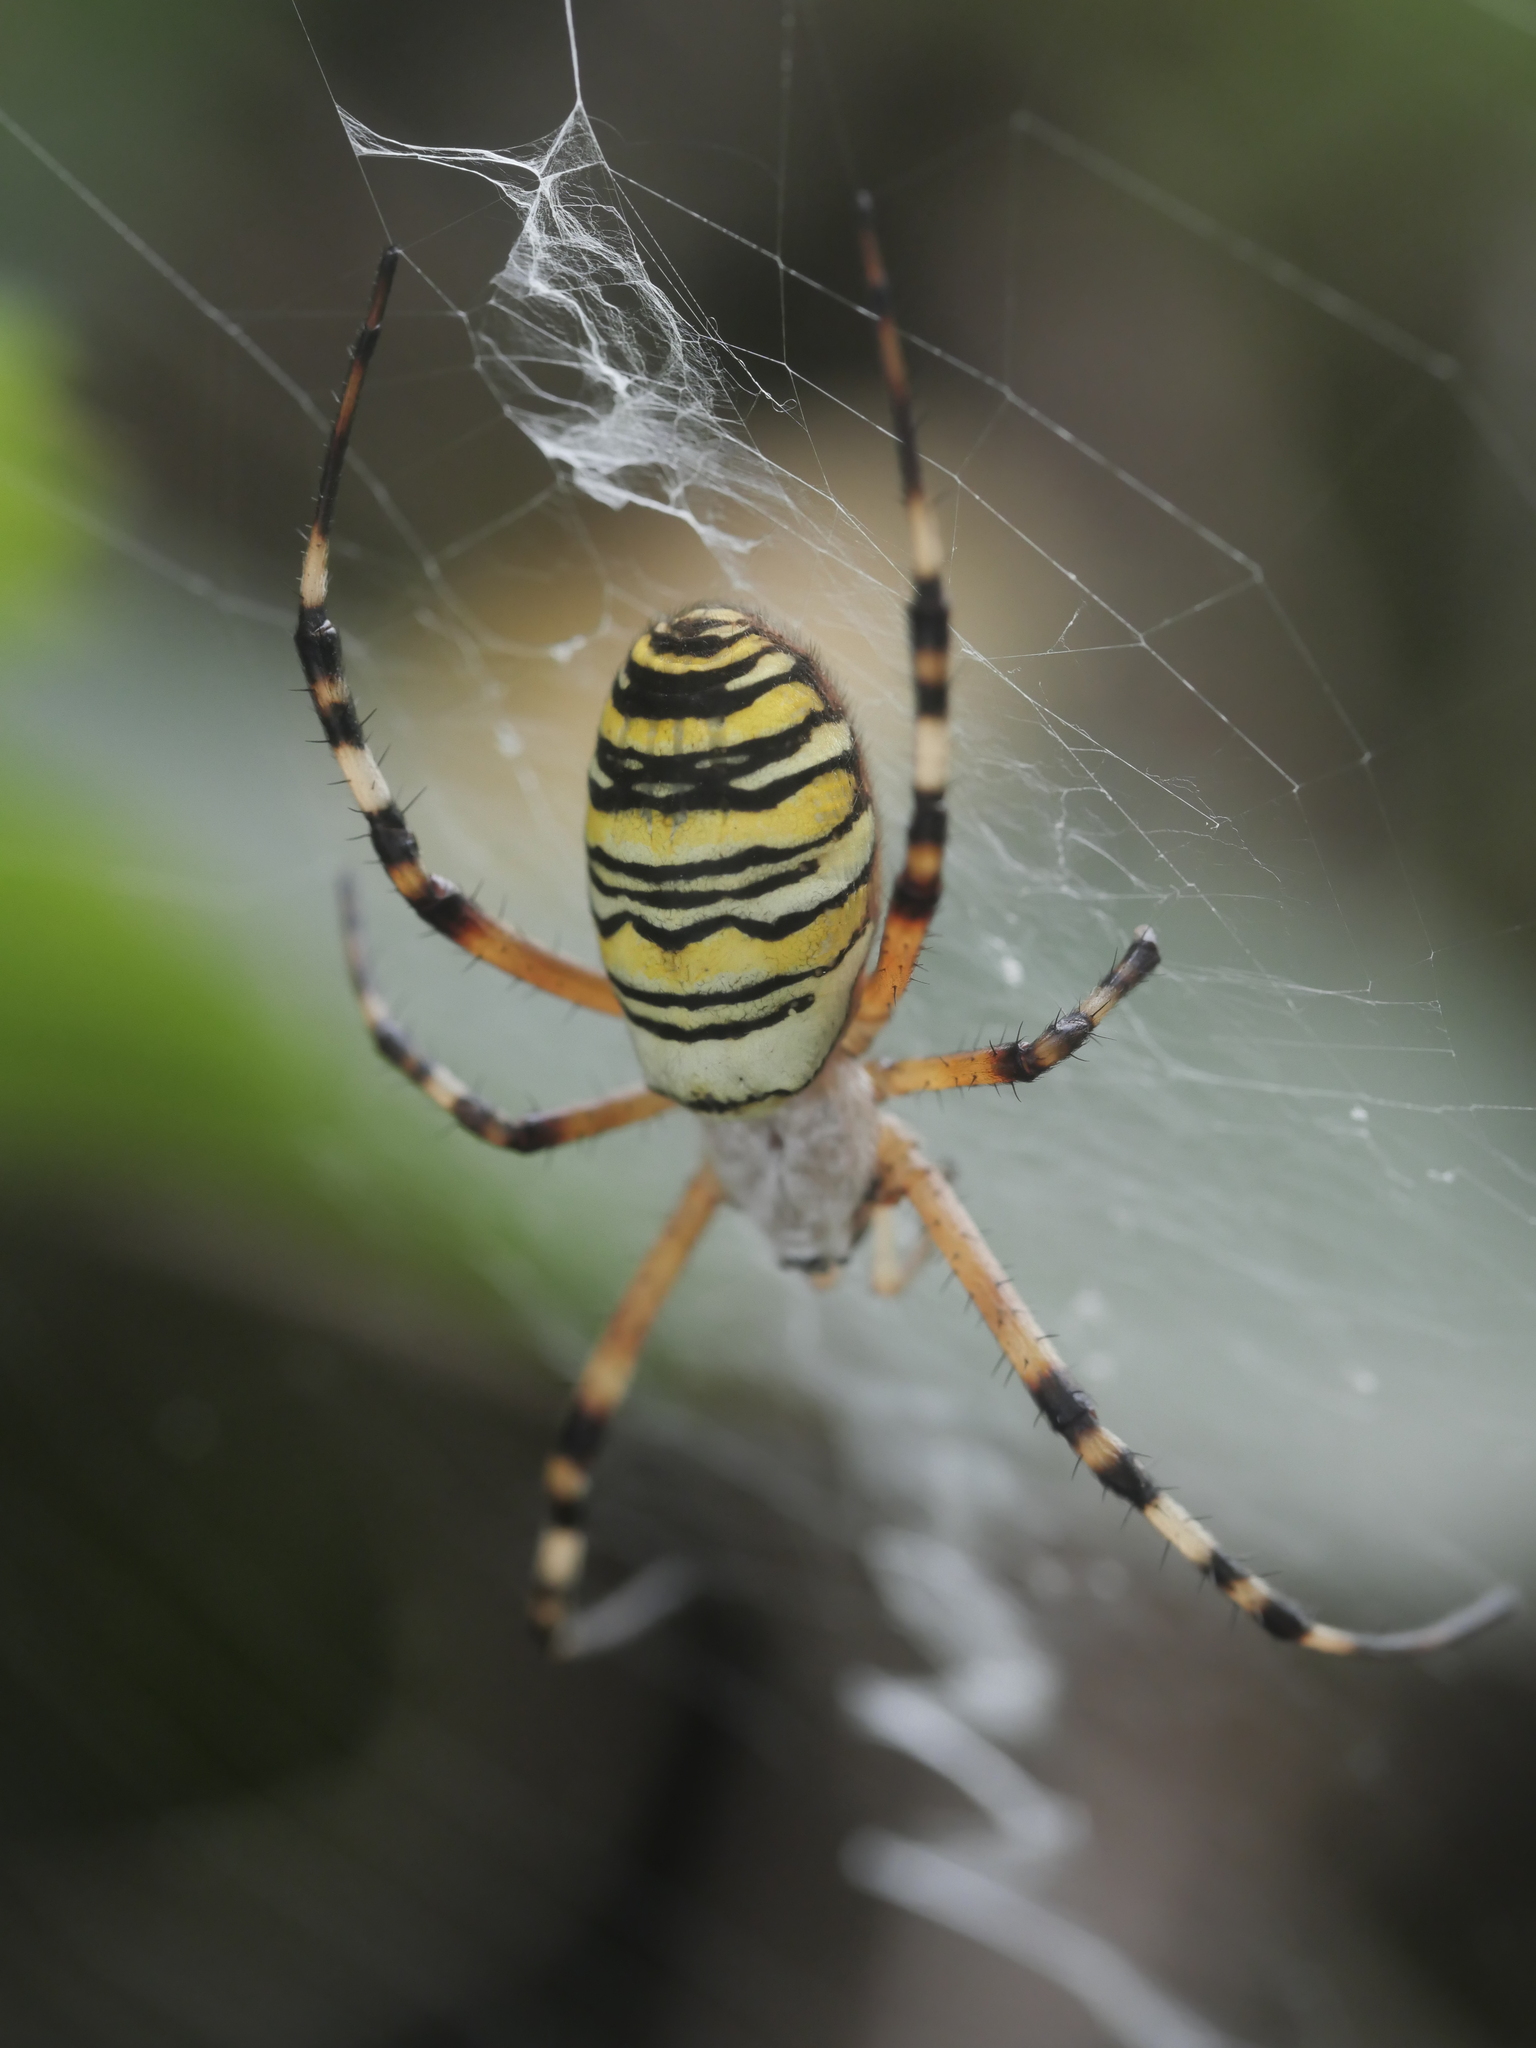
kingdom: Animalia
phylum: Arthropoda
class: Arachnida
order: Araneae
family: Araneidae
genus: Argiope
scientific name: Argiope bruennichi
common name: Wasp spider
